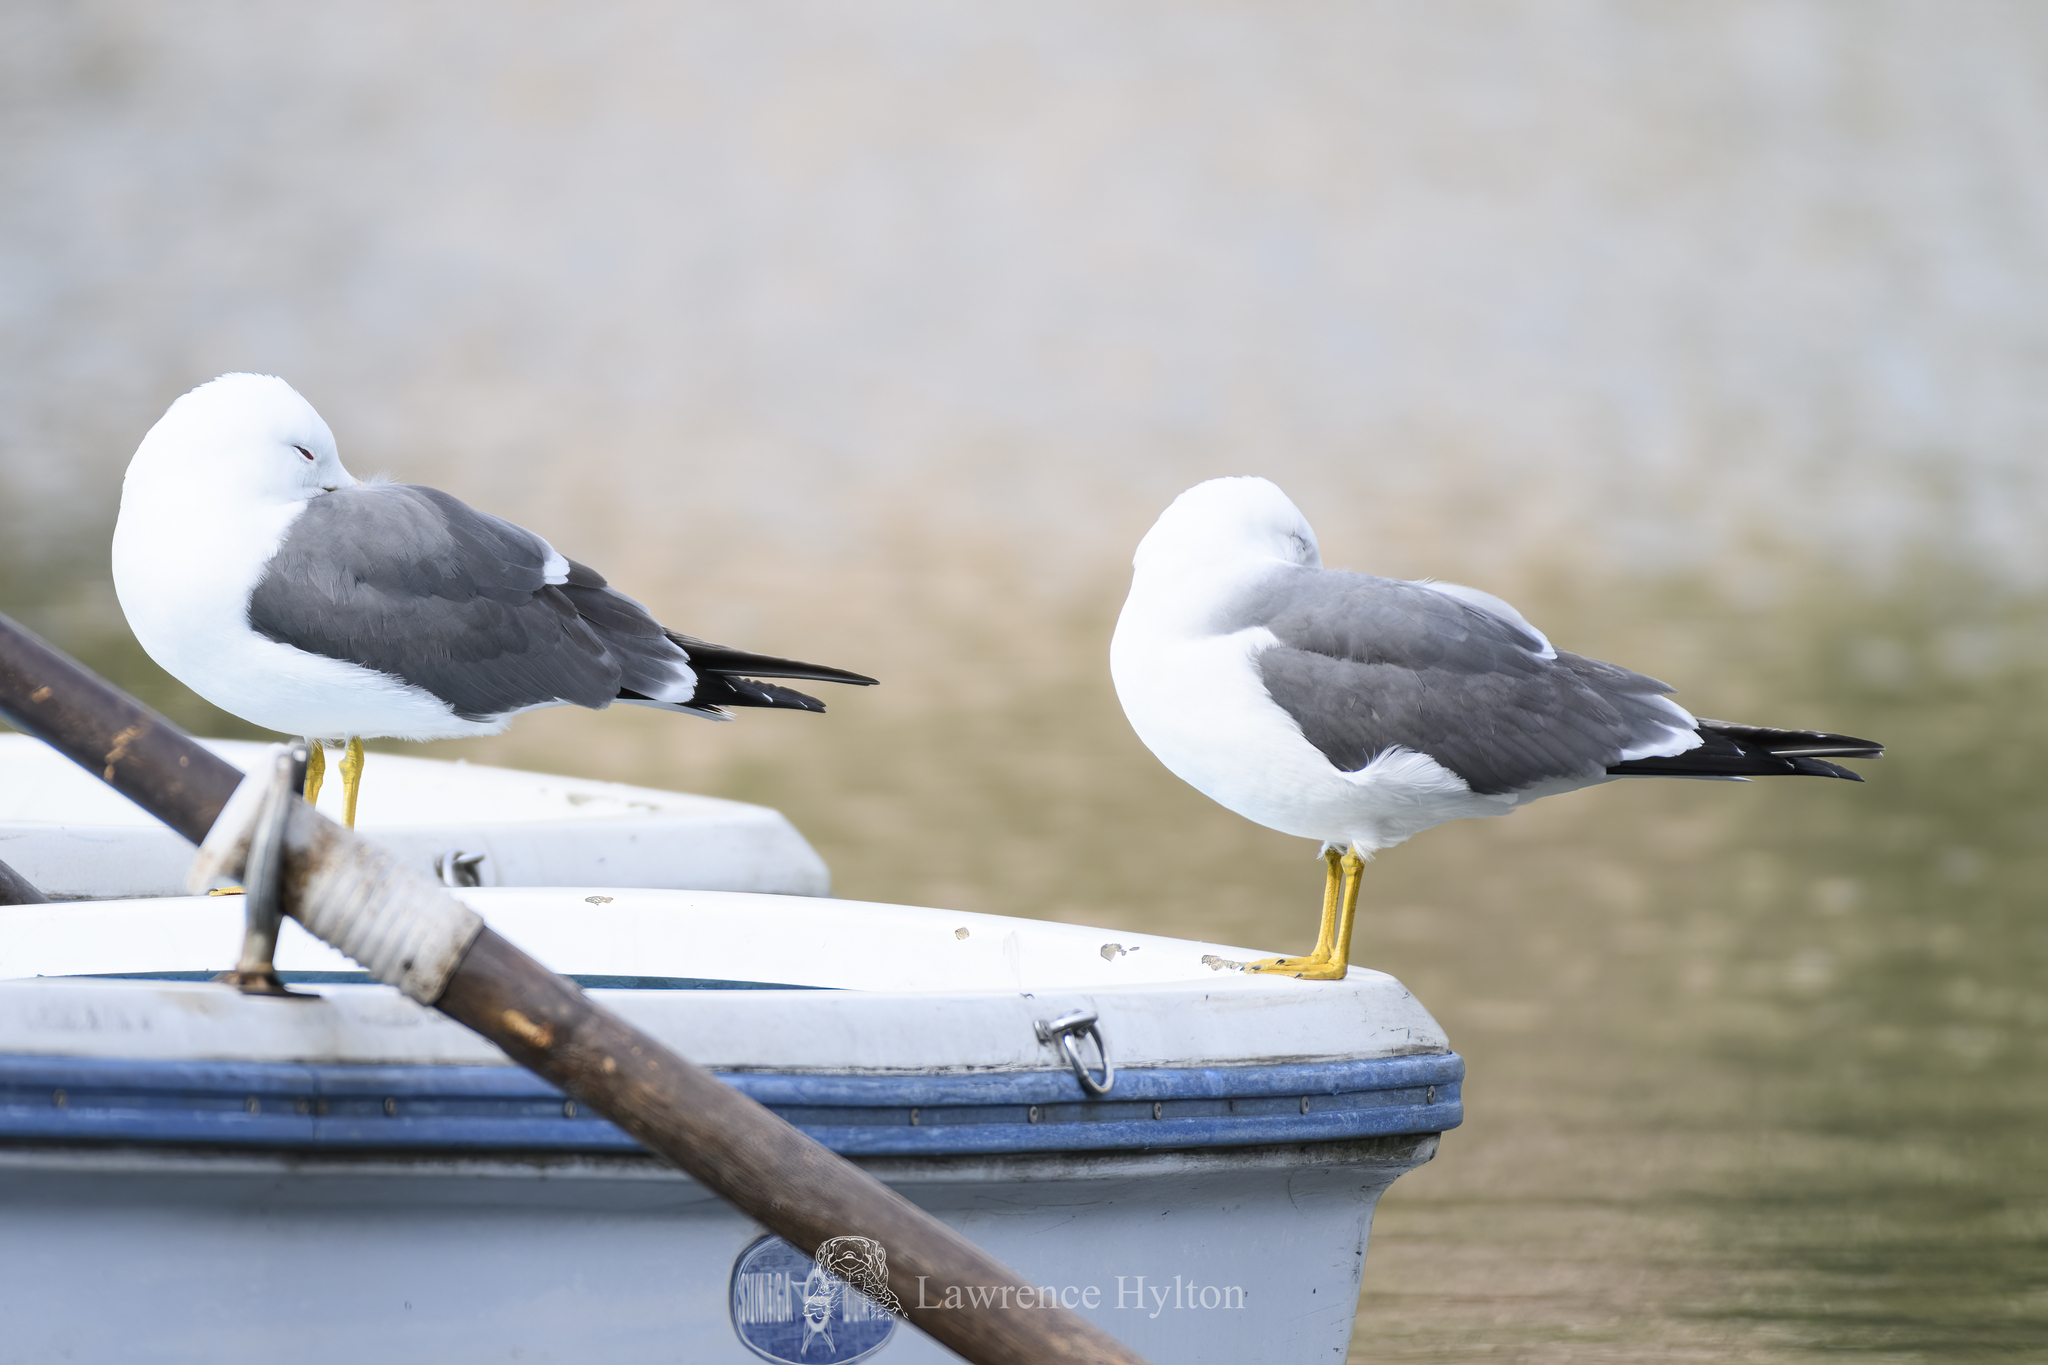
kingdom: Animalia
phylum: Chordata
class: Aves
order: Charadriiformes
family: Laridae
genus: Larus
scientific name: Larus crassirostris
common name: Black-tailed gull
